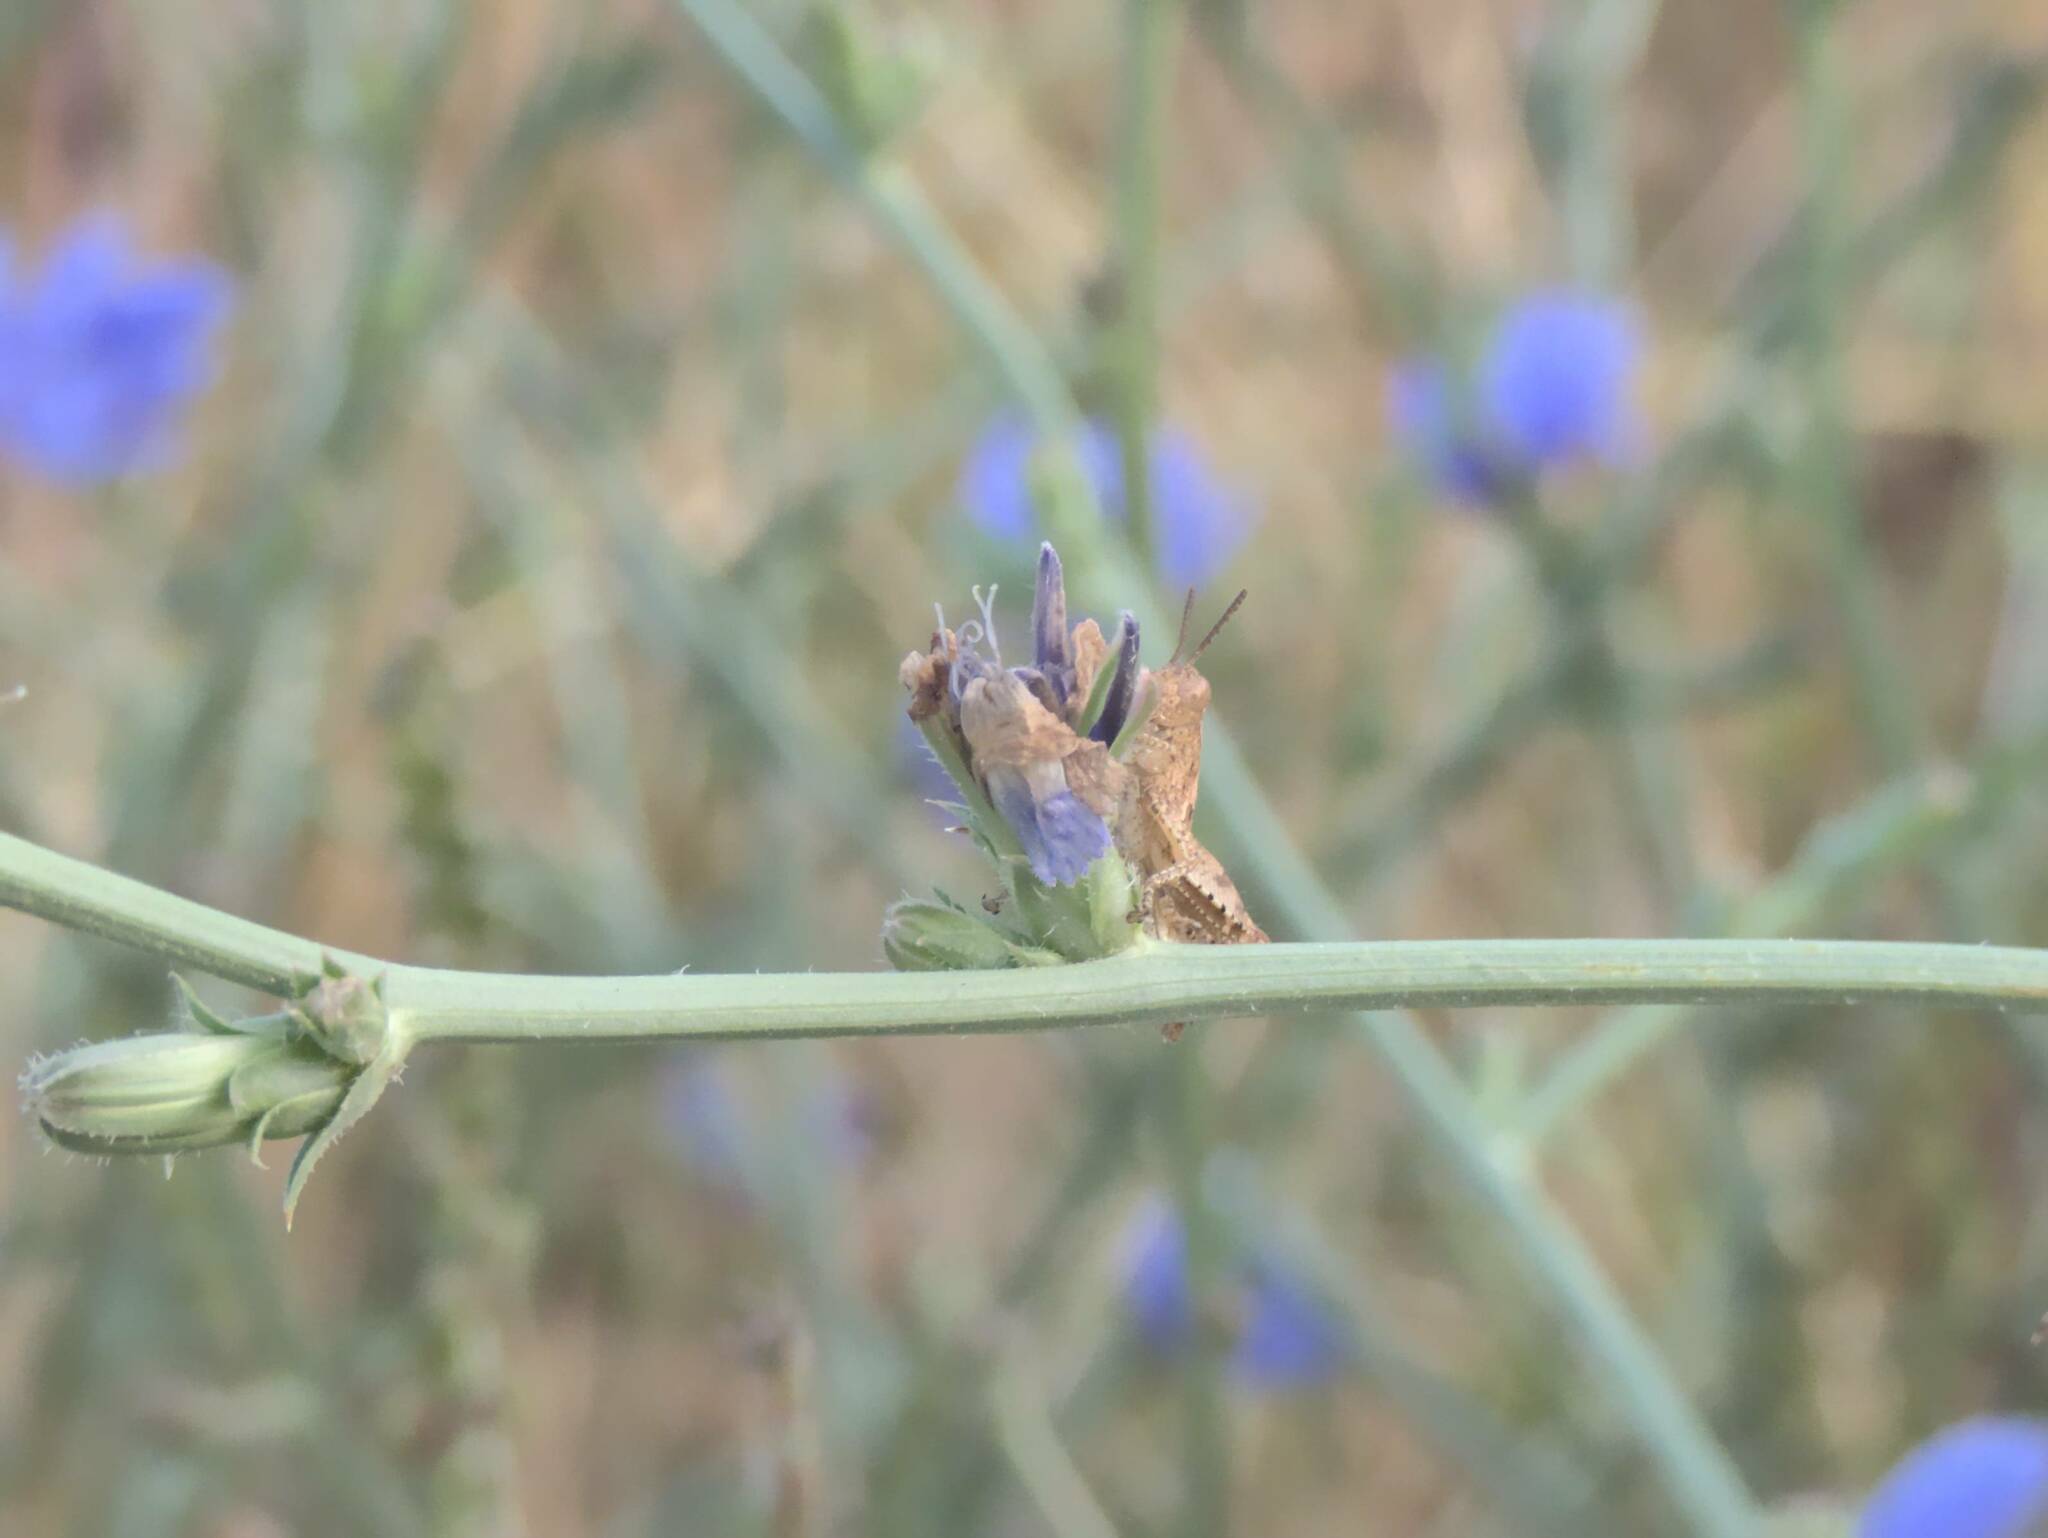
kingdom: Animalia
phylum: Arthropoda
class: Insecta
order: Orthoptera
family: Acrididae
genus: Pezotettix
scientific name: Pezotettix giornae
